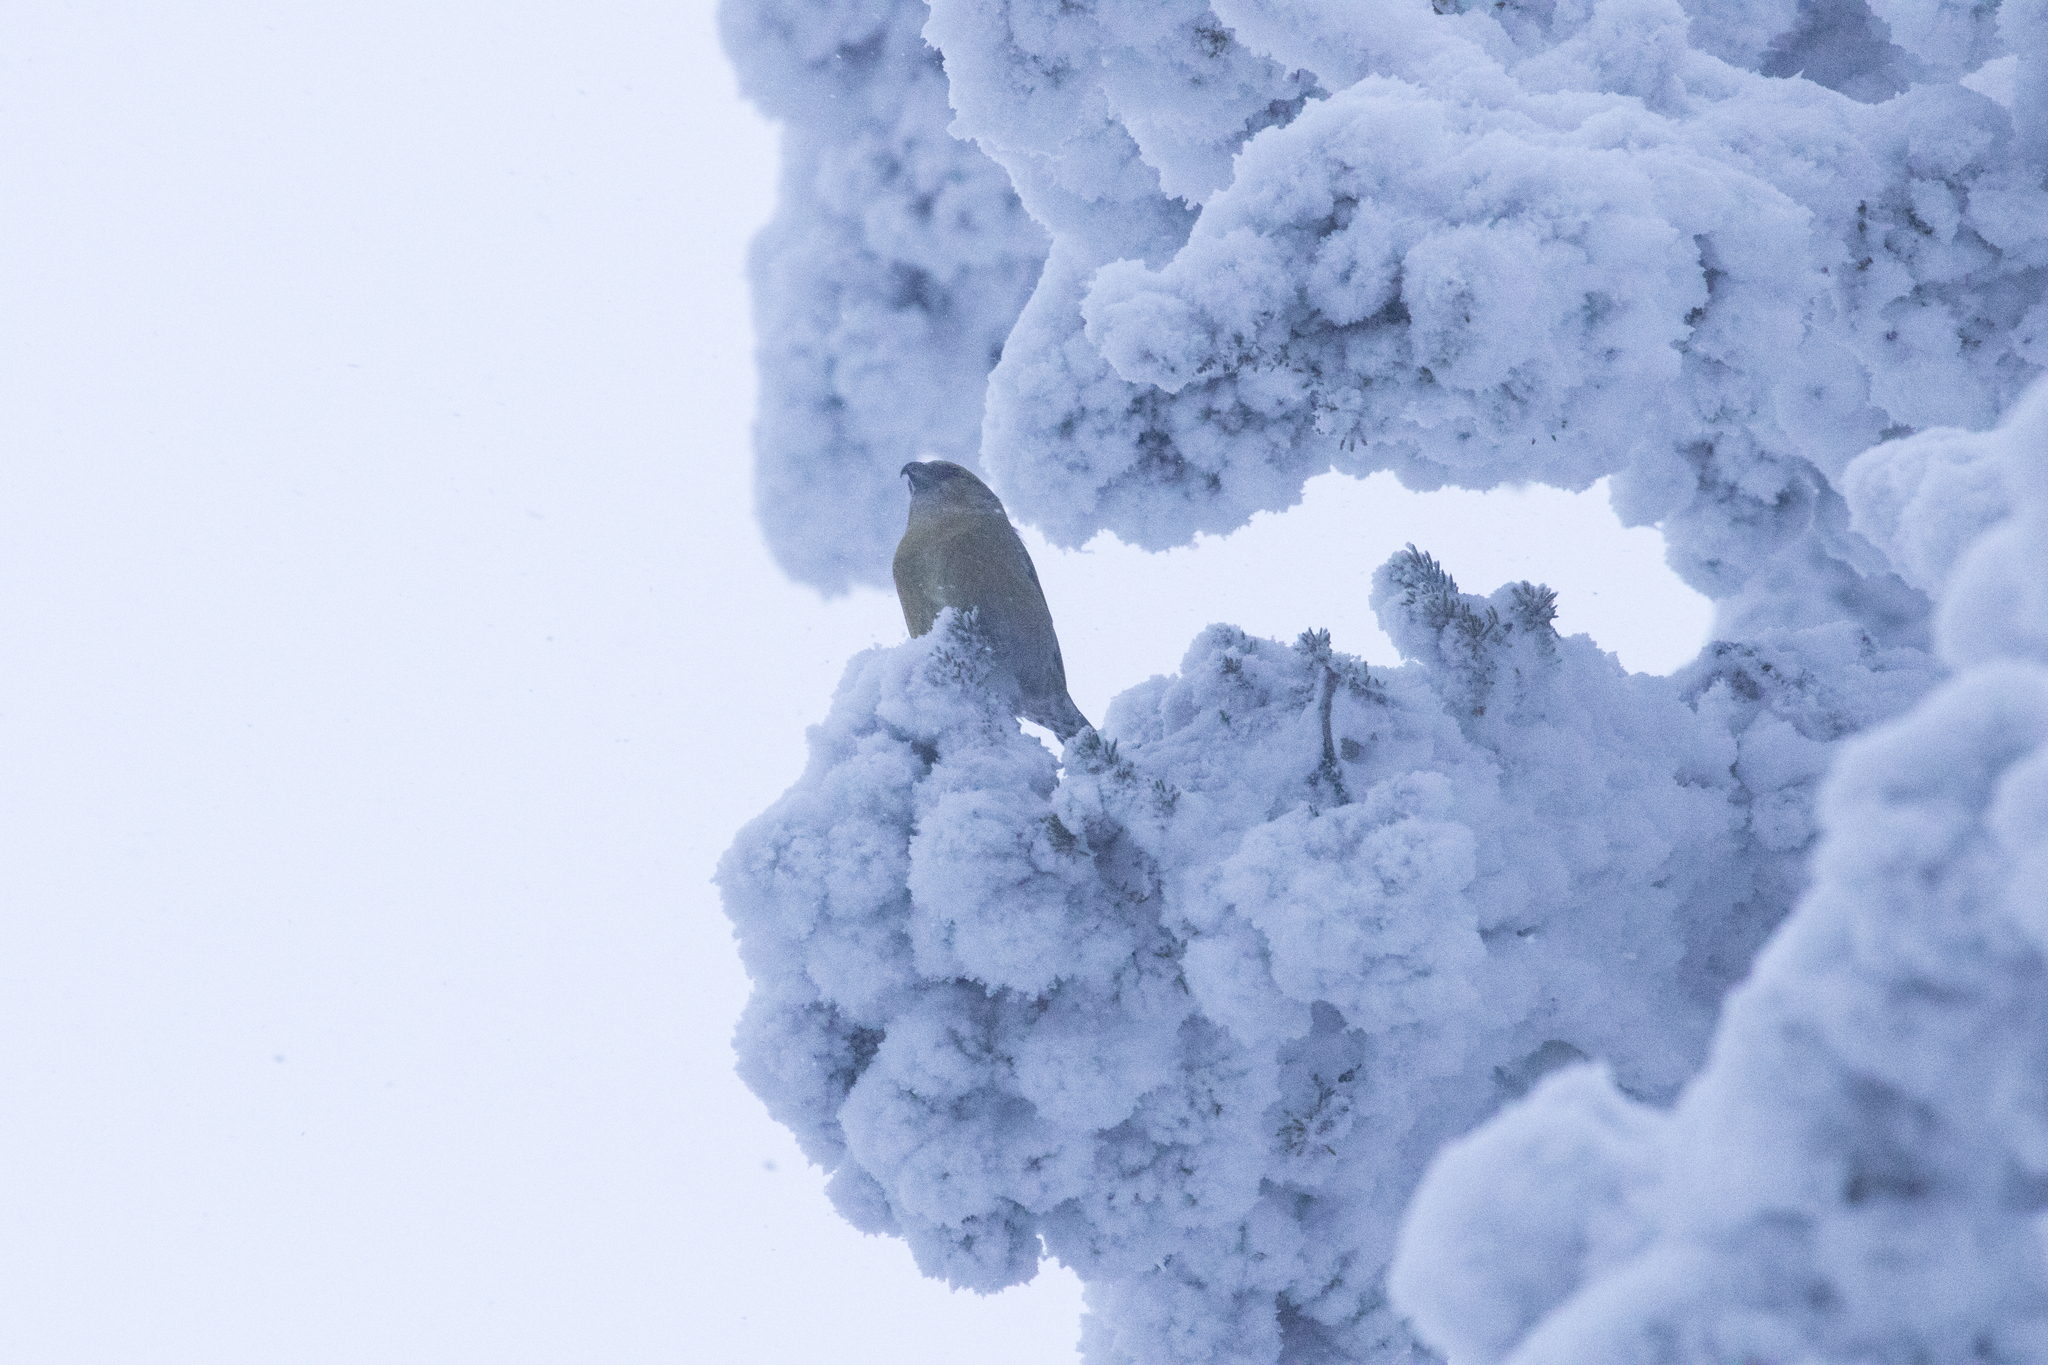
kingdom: Animalia
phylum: Chordata
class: Aves
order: Passeriformes
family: Fringillidae
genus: Loxia
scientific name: Loxia curvirostra
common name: Red crossbill
